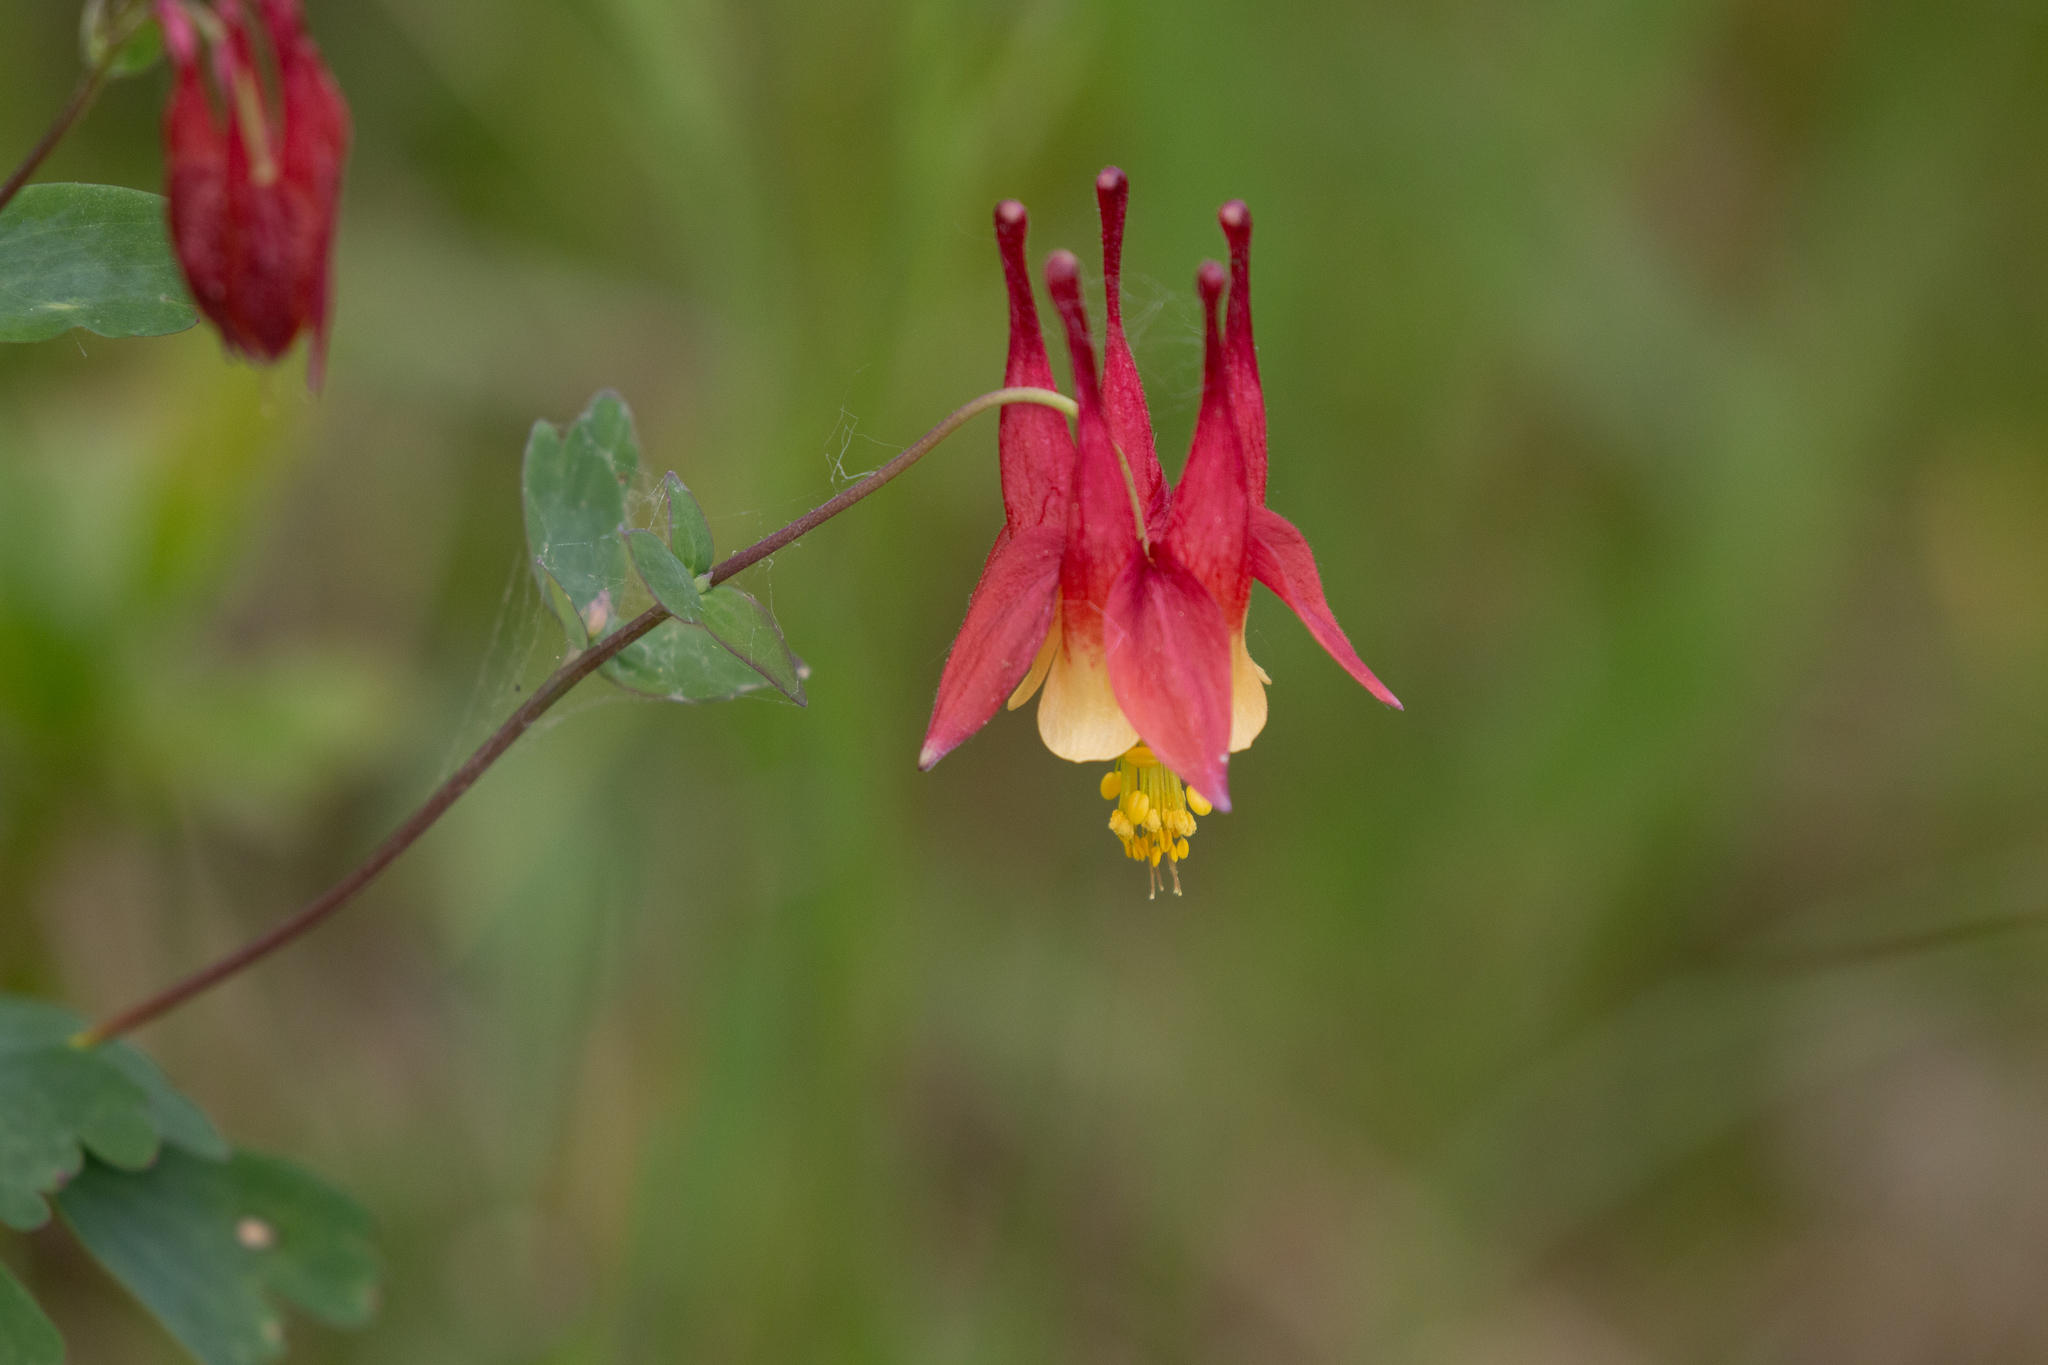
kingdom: Plantae
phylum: Tracheophyta
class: Magnoliopsida
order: Ranunculales
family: Ranunculaceae
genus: Aquilegia
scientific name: Aquilegia canadensis
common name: American columbine
